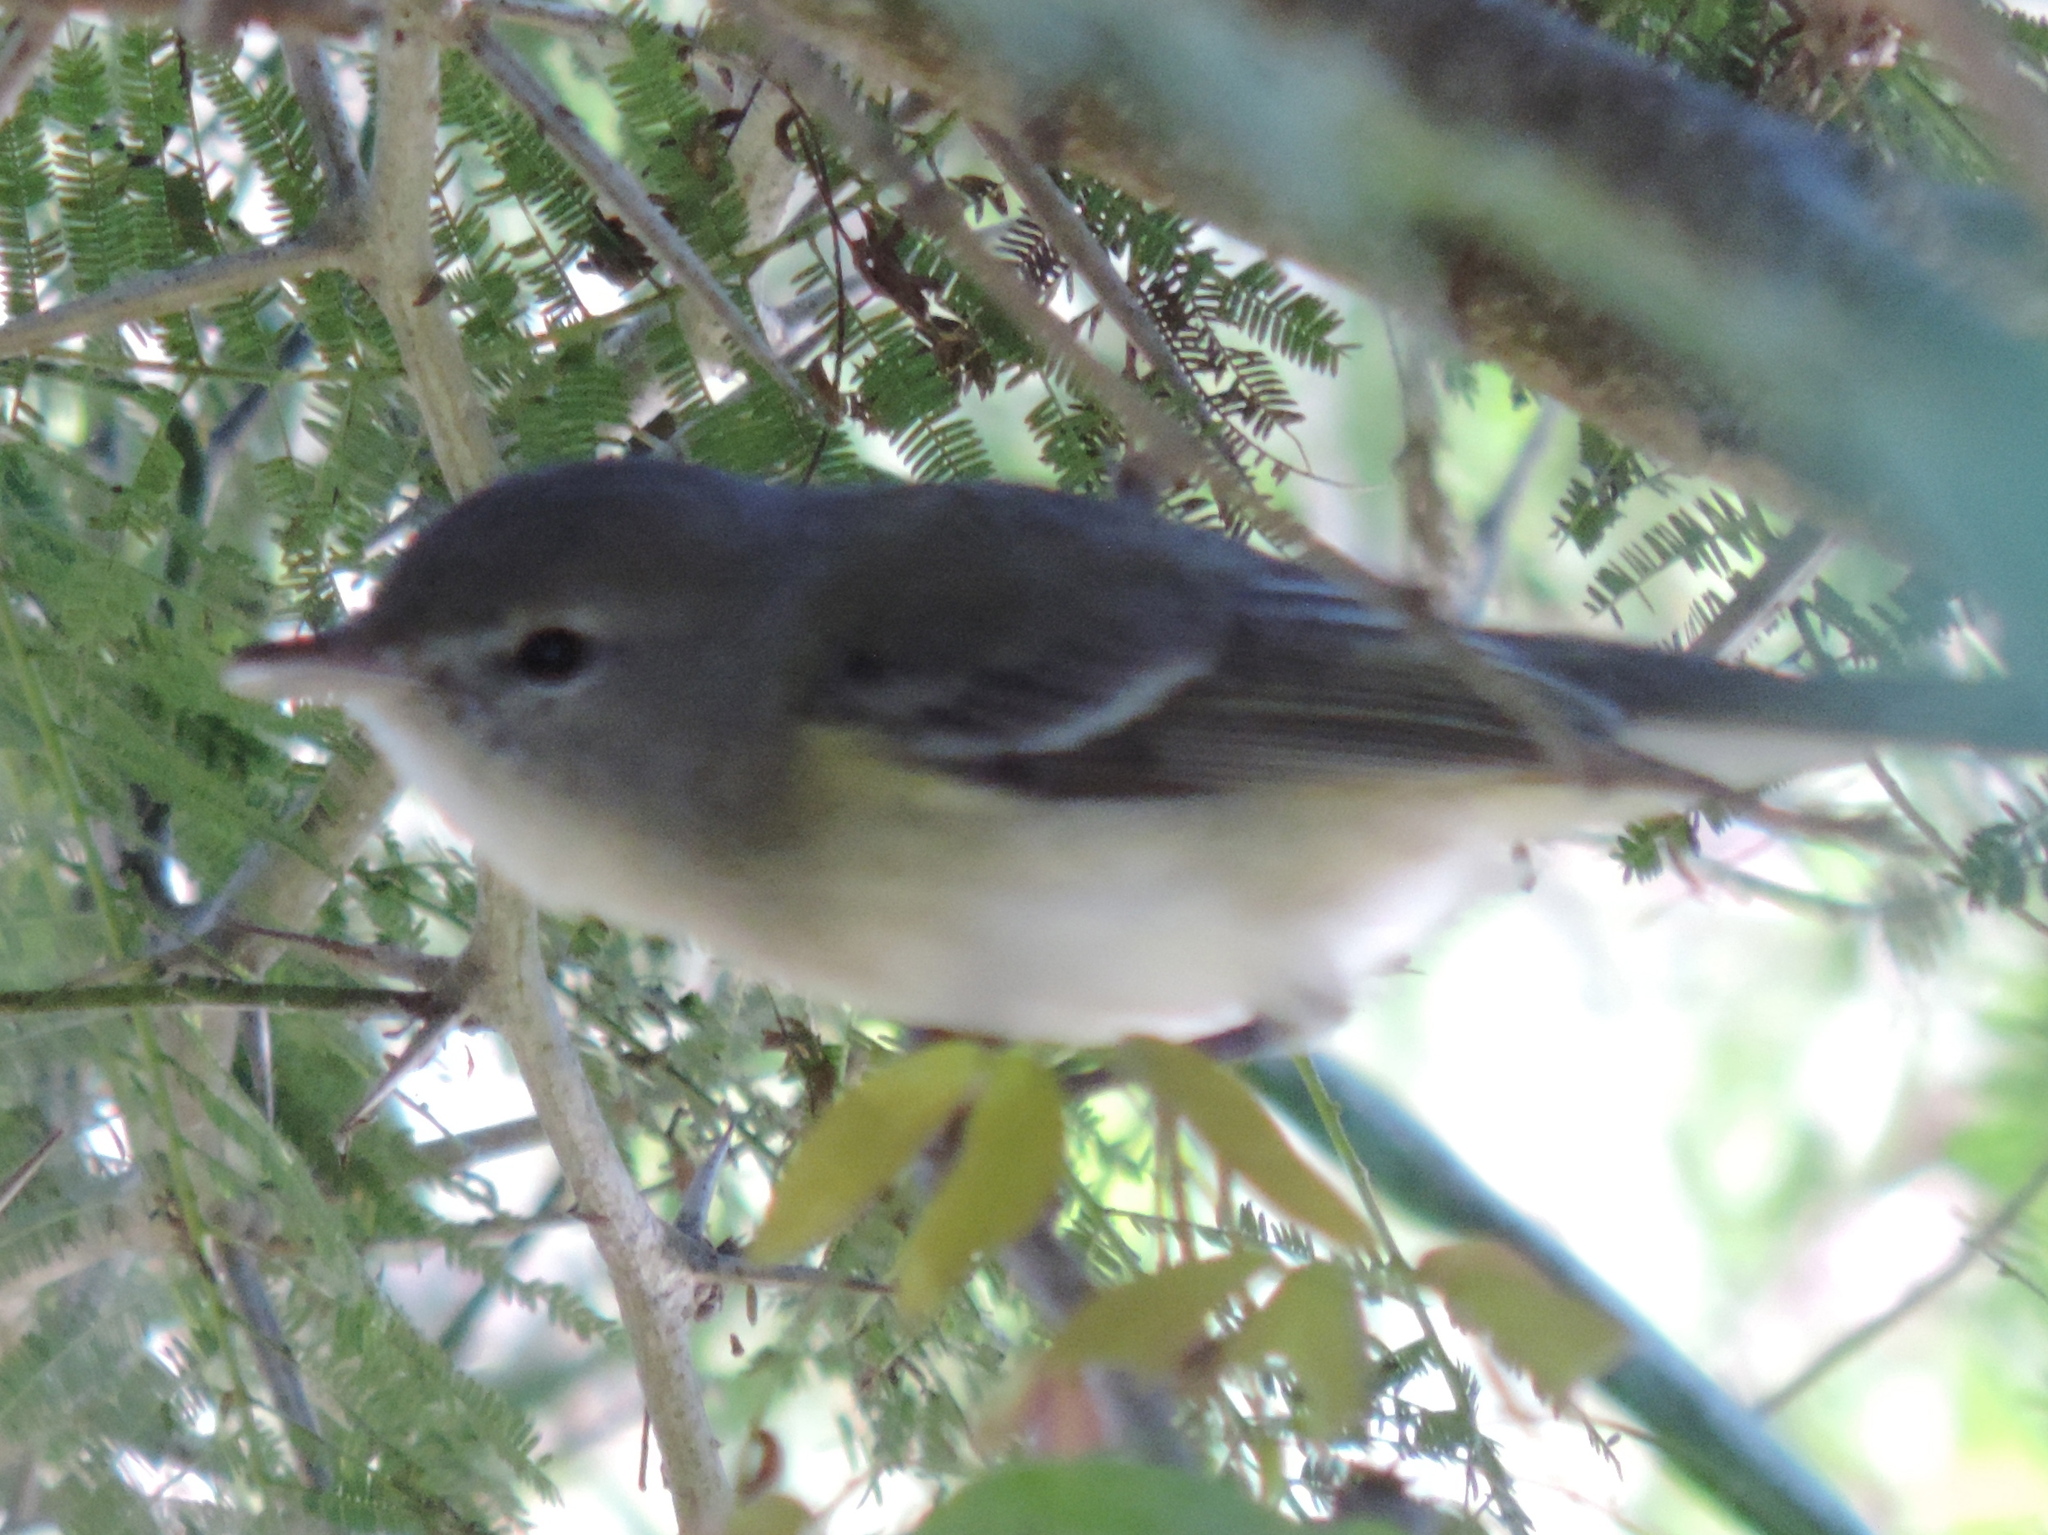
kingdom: Animalia
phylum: Chordata
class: Aves
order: Passeriformes
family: Vireonidae
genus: Vireo
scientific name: Vireo bellii
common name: Bell's vireo
